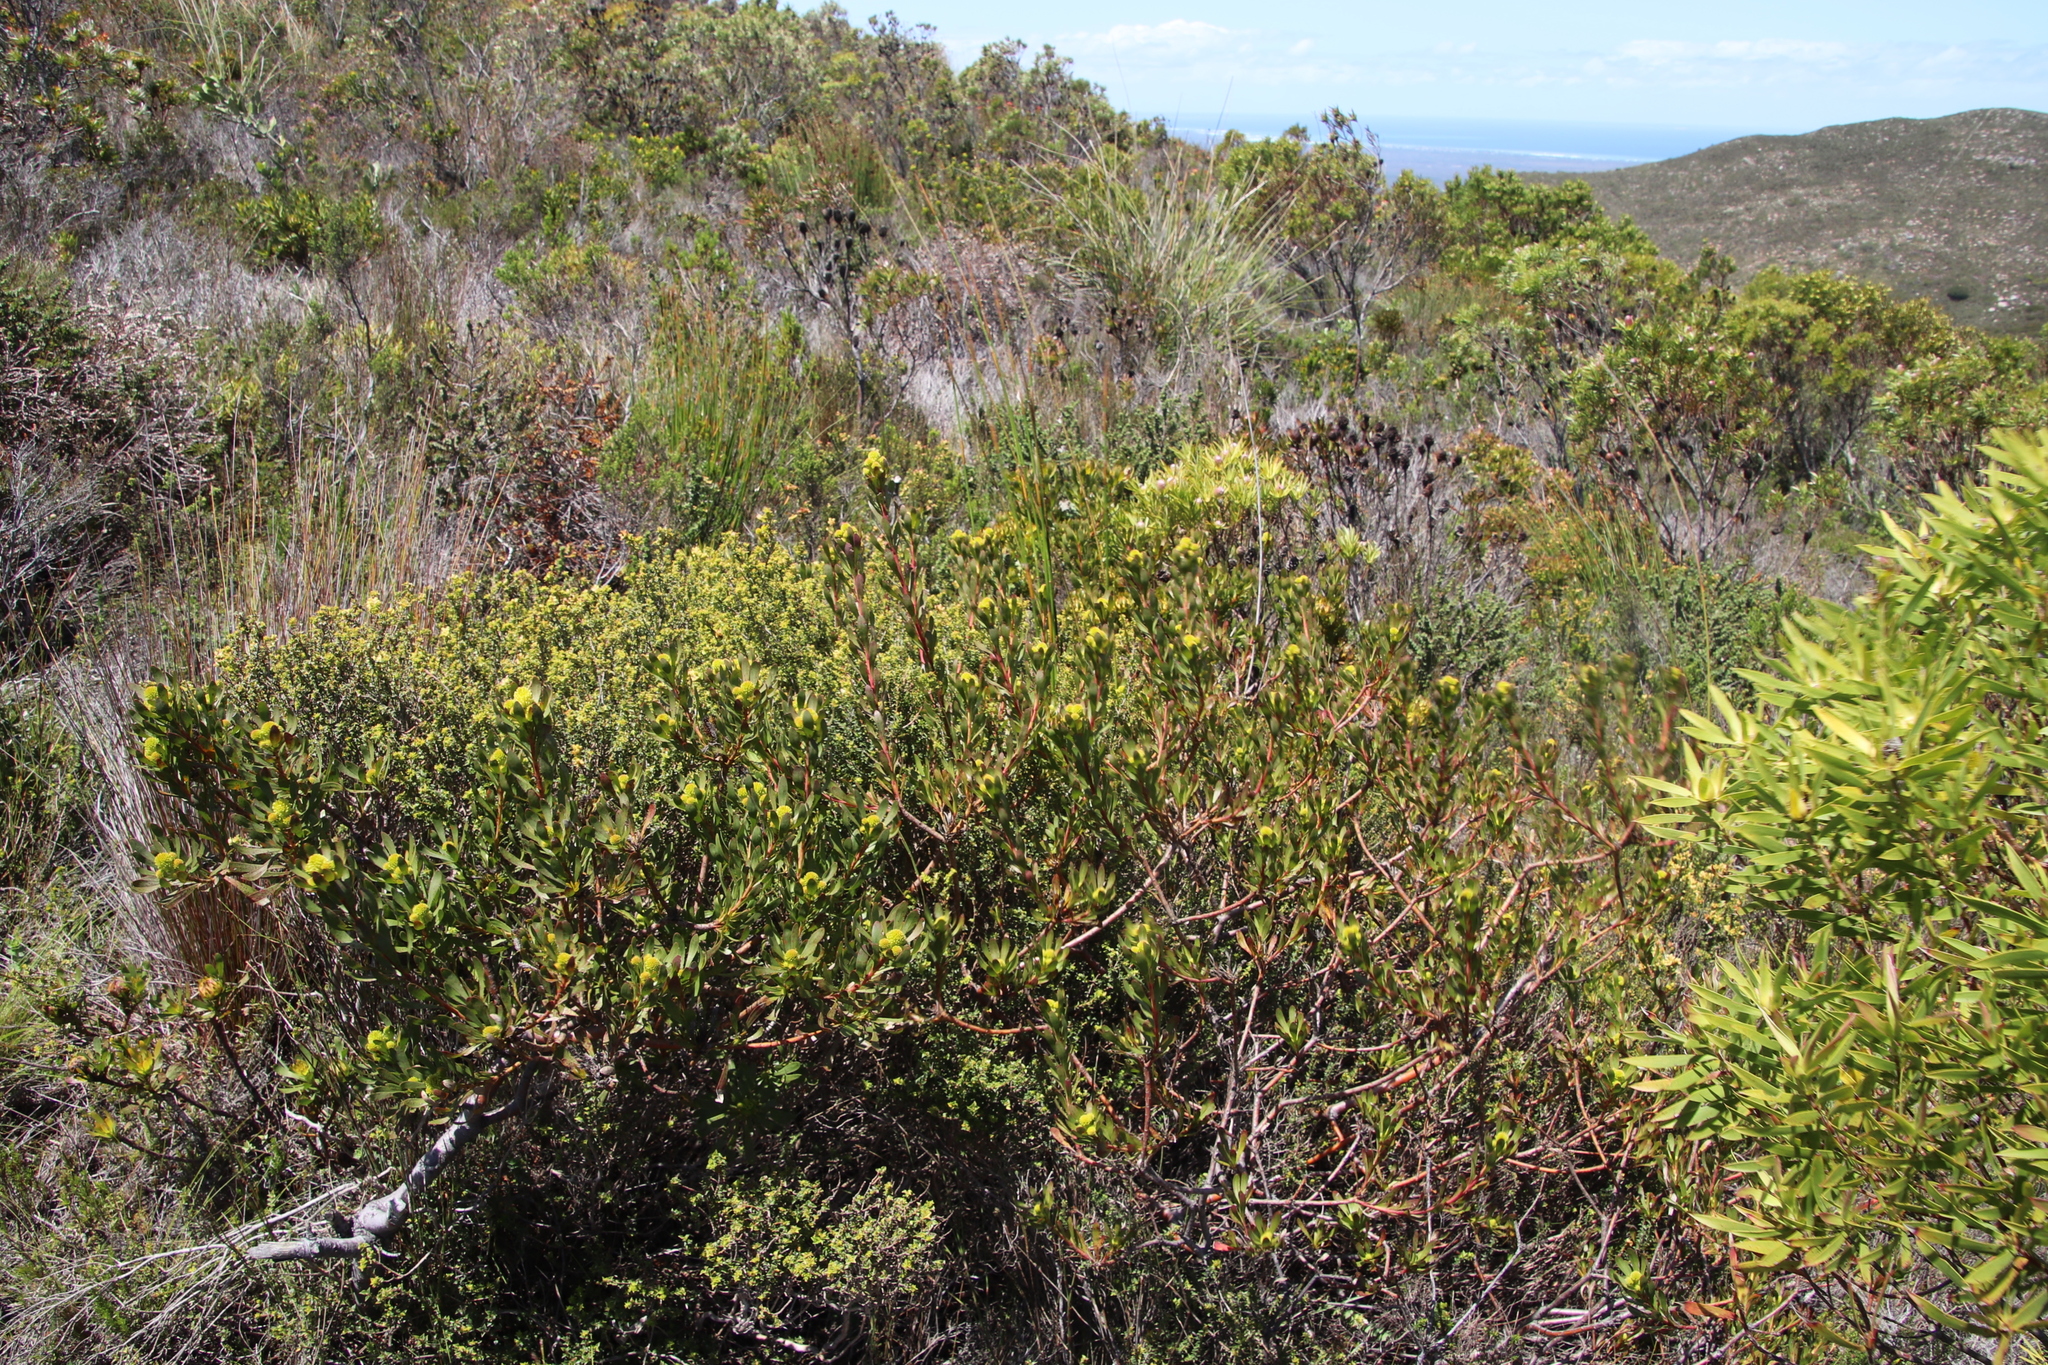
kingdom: Plantae
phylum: Tracheophyta
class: Magnoliopsida
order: Proteales
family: Proteaceae
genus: Aulax
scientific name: Aulax umbellata
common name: Broad-leaf featherbush
